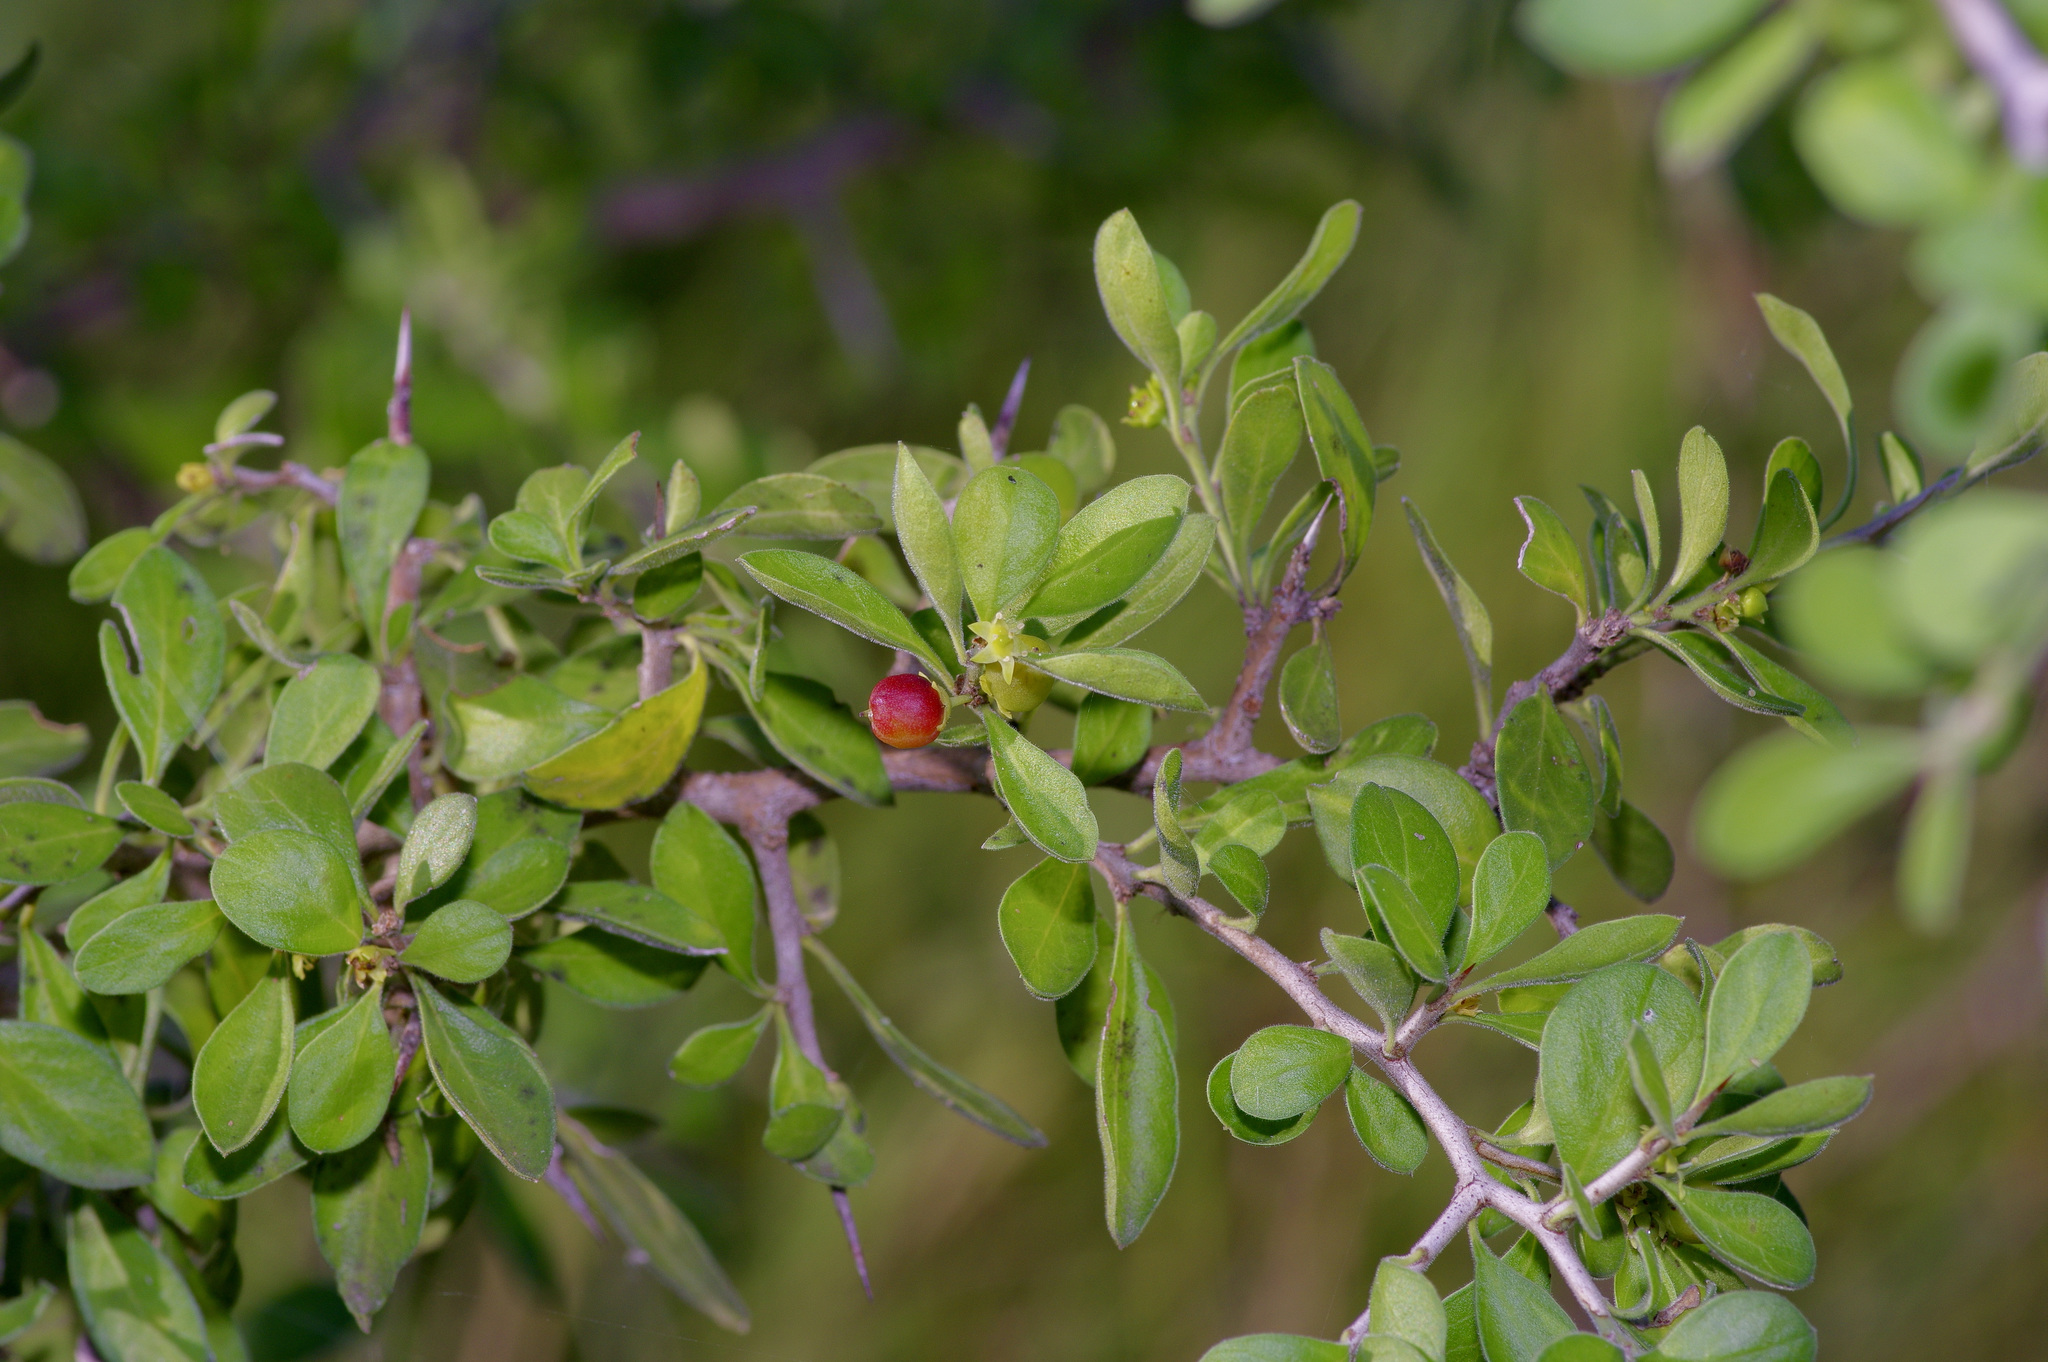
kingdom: Plantae
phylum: Tracheophyta
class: Magnoliopsida
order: Rosales
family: Rhamnaceae
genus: Condalia
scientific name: Condalia hookeri
